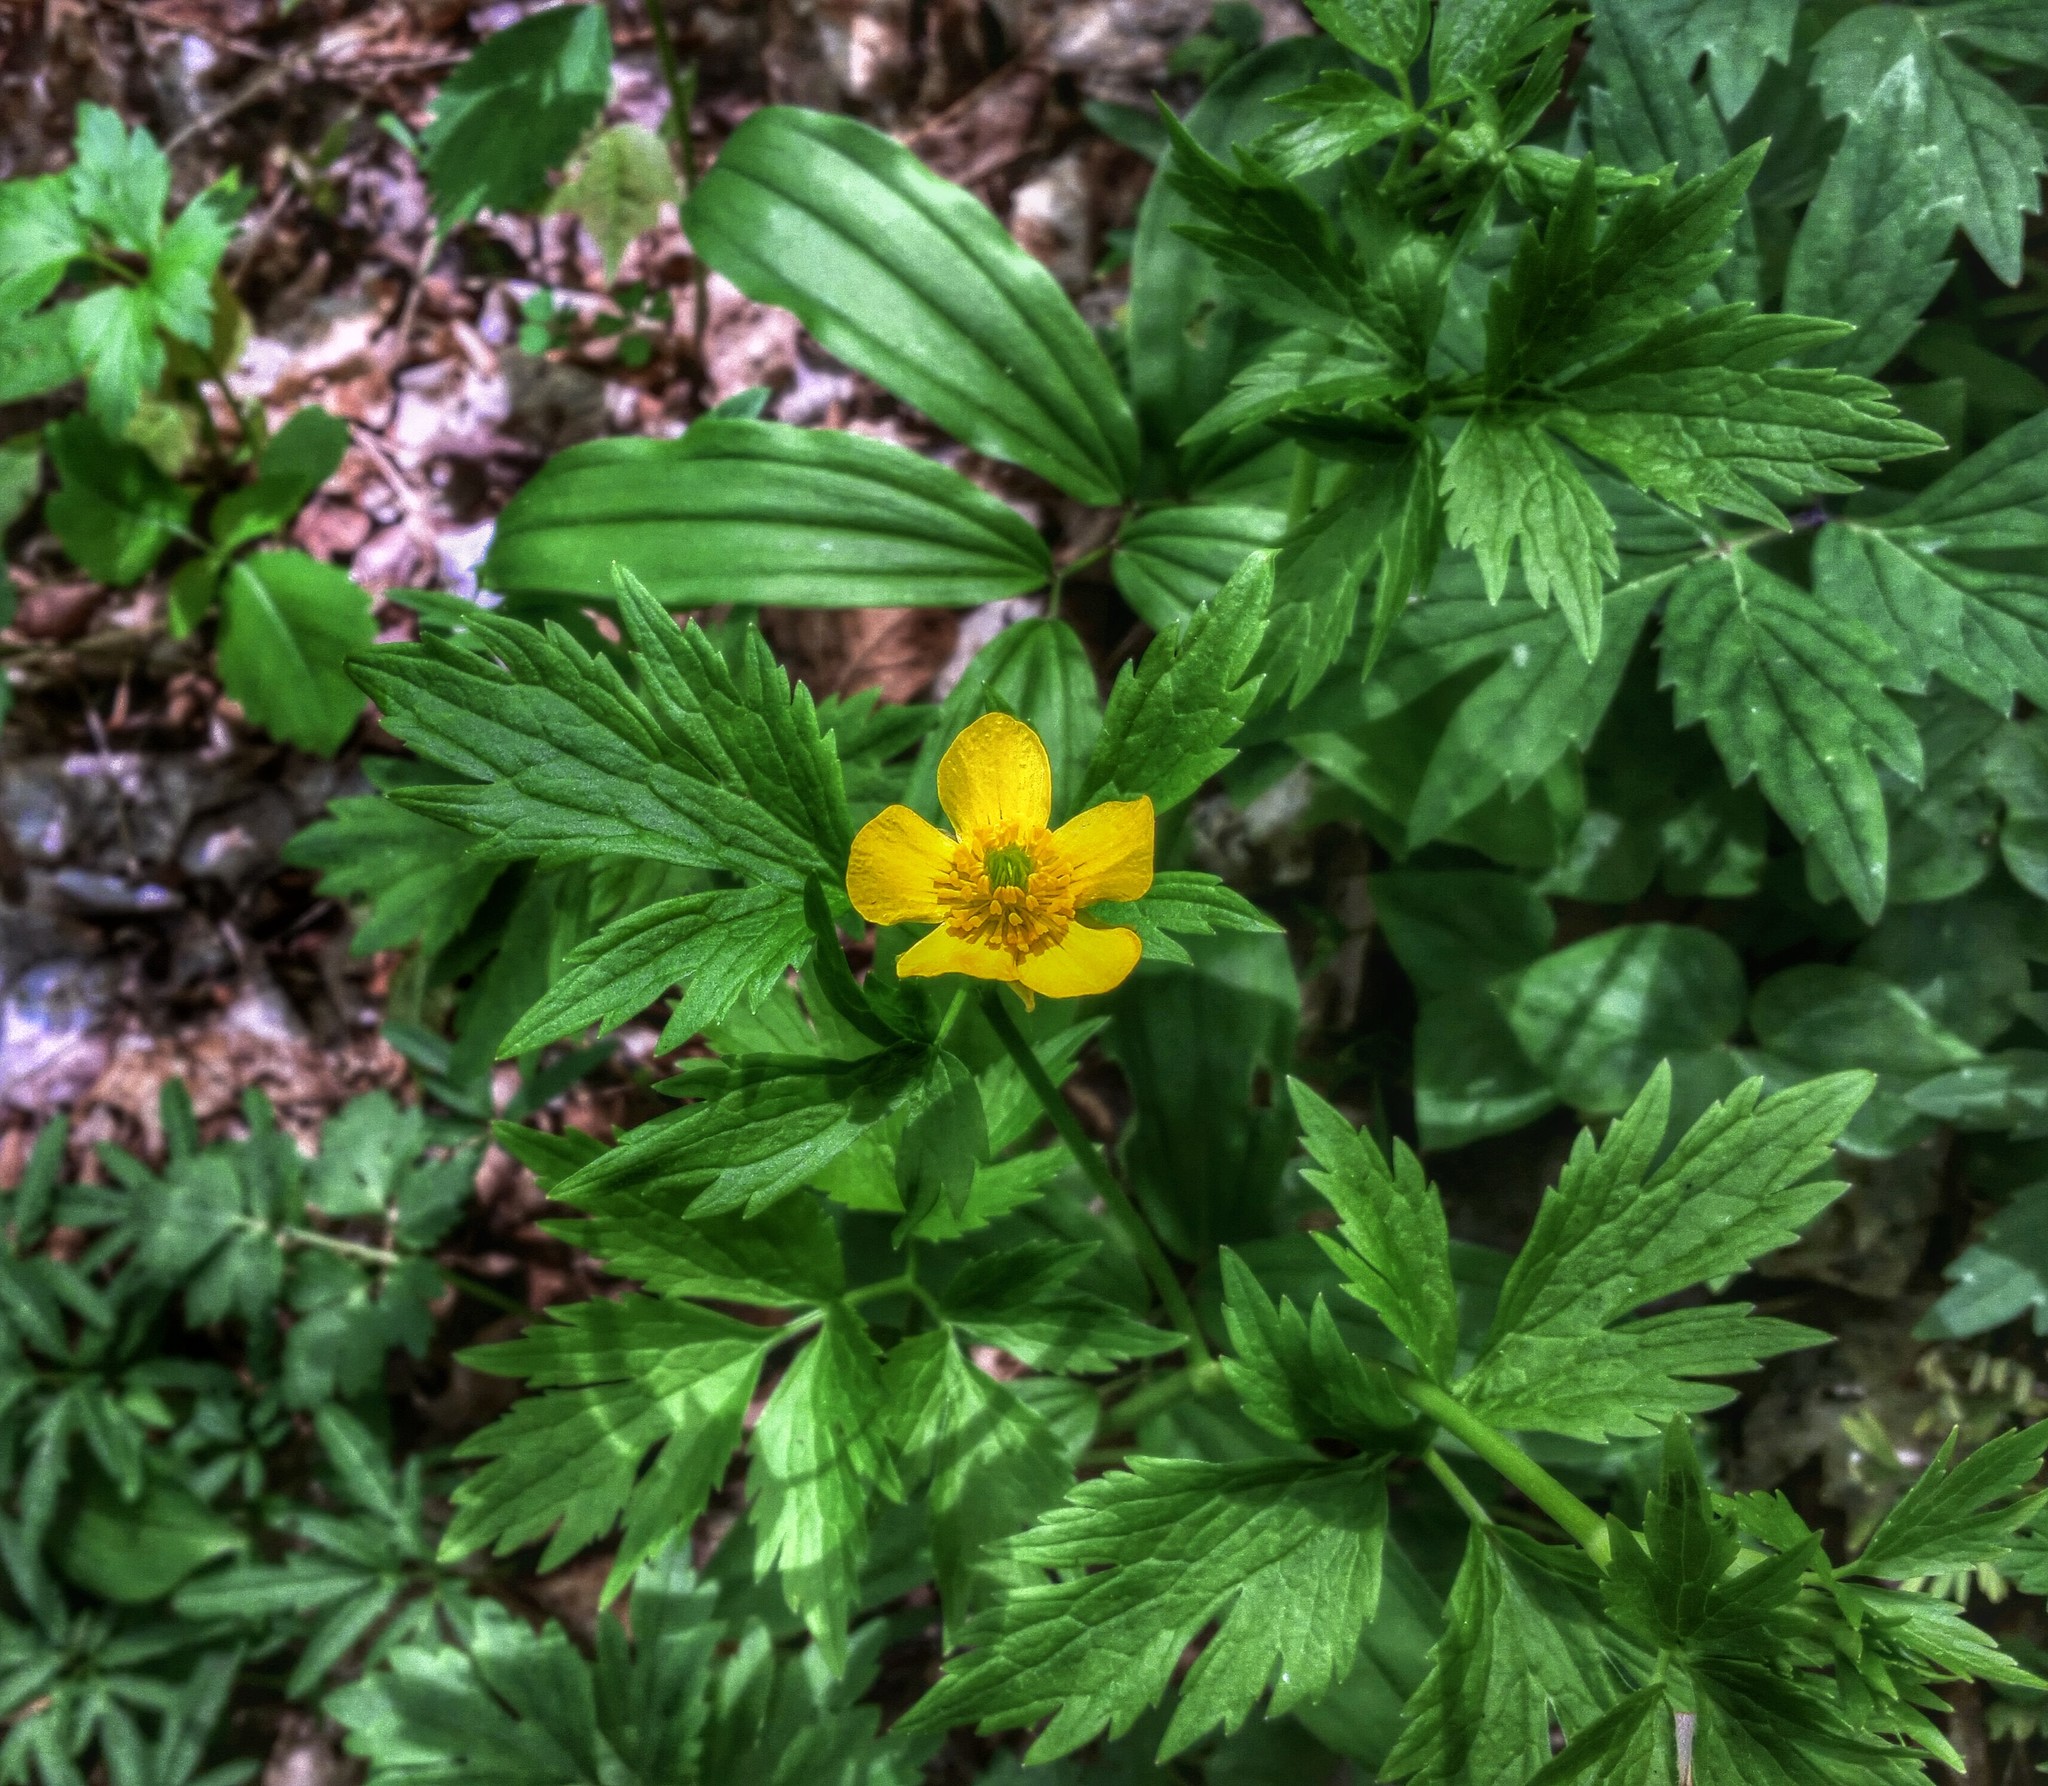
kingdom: Plantae
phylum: Tracheophyta
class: Magnoliopsida
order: Ranunculales
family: Ranunculaceae
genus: Ranunculus
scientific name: Ranunculus hispidus
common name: Bristly buttercup
